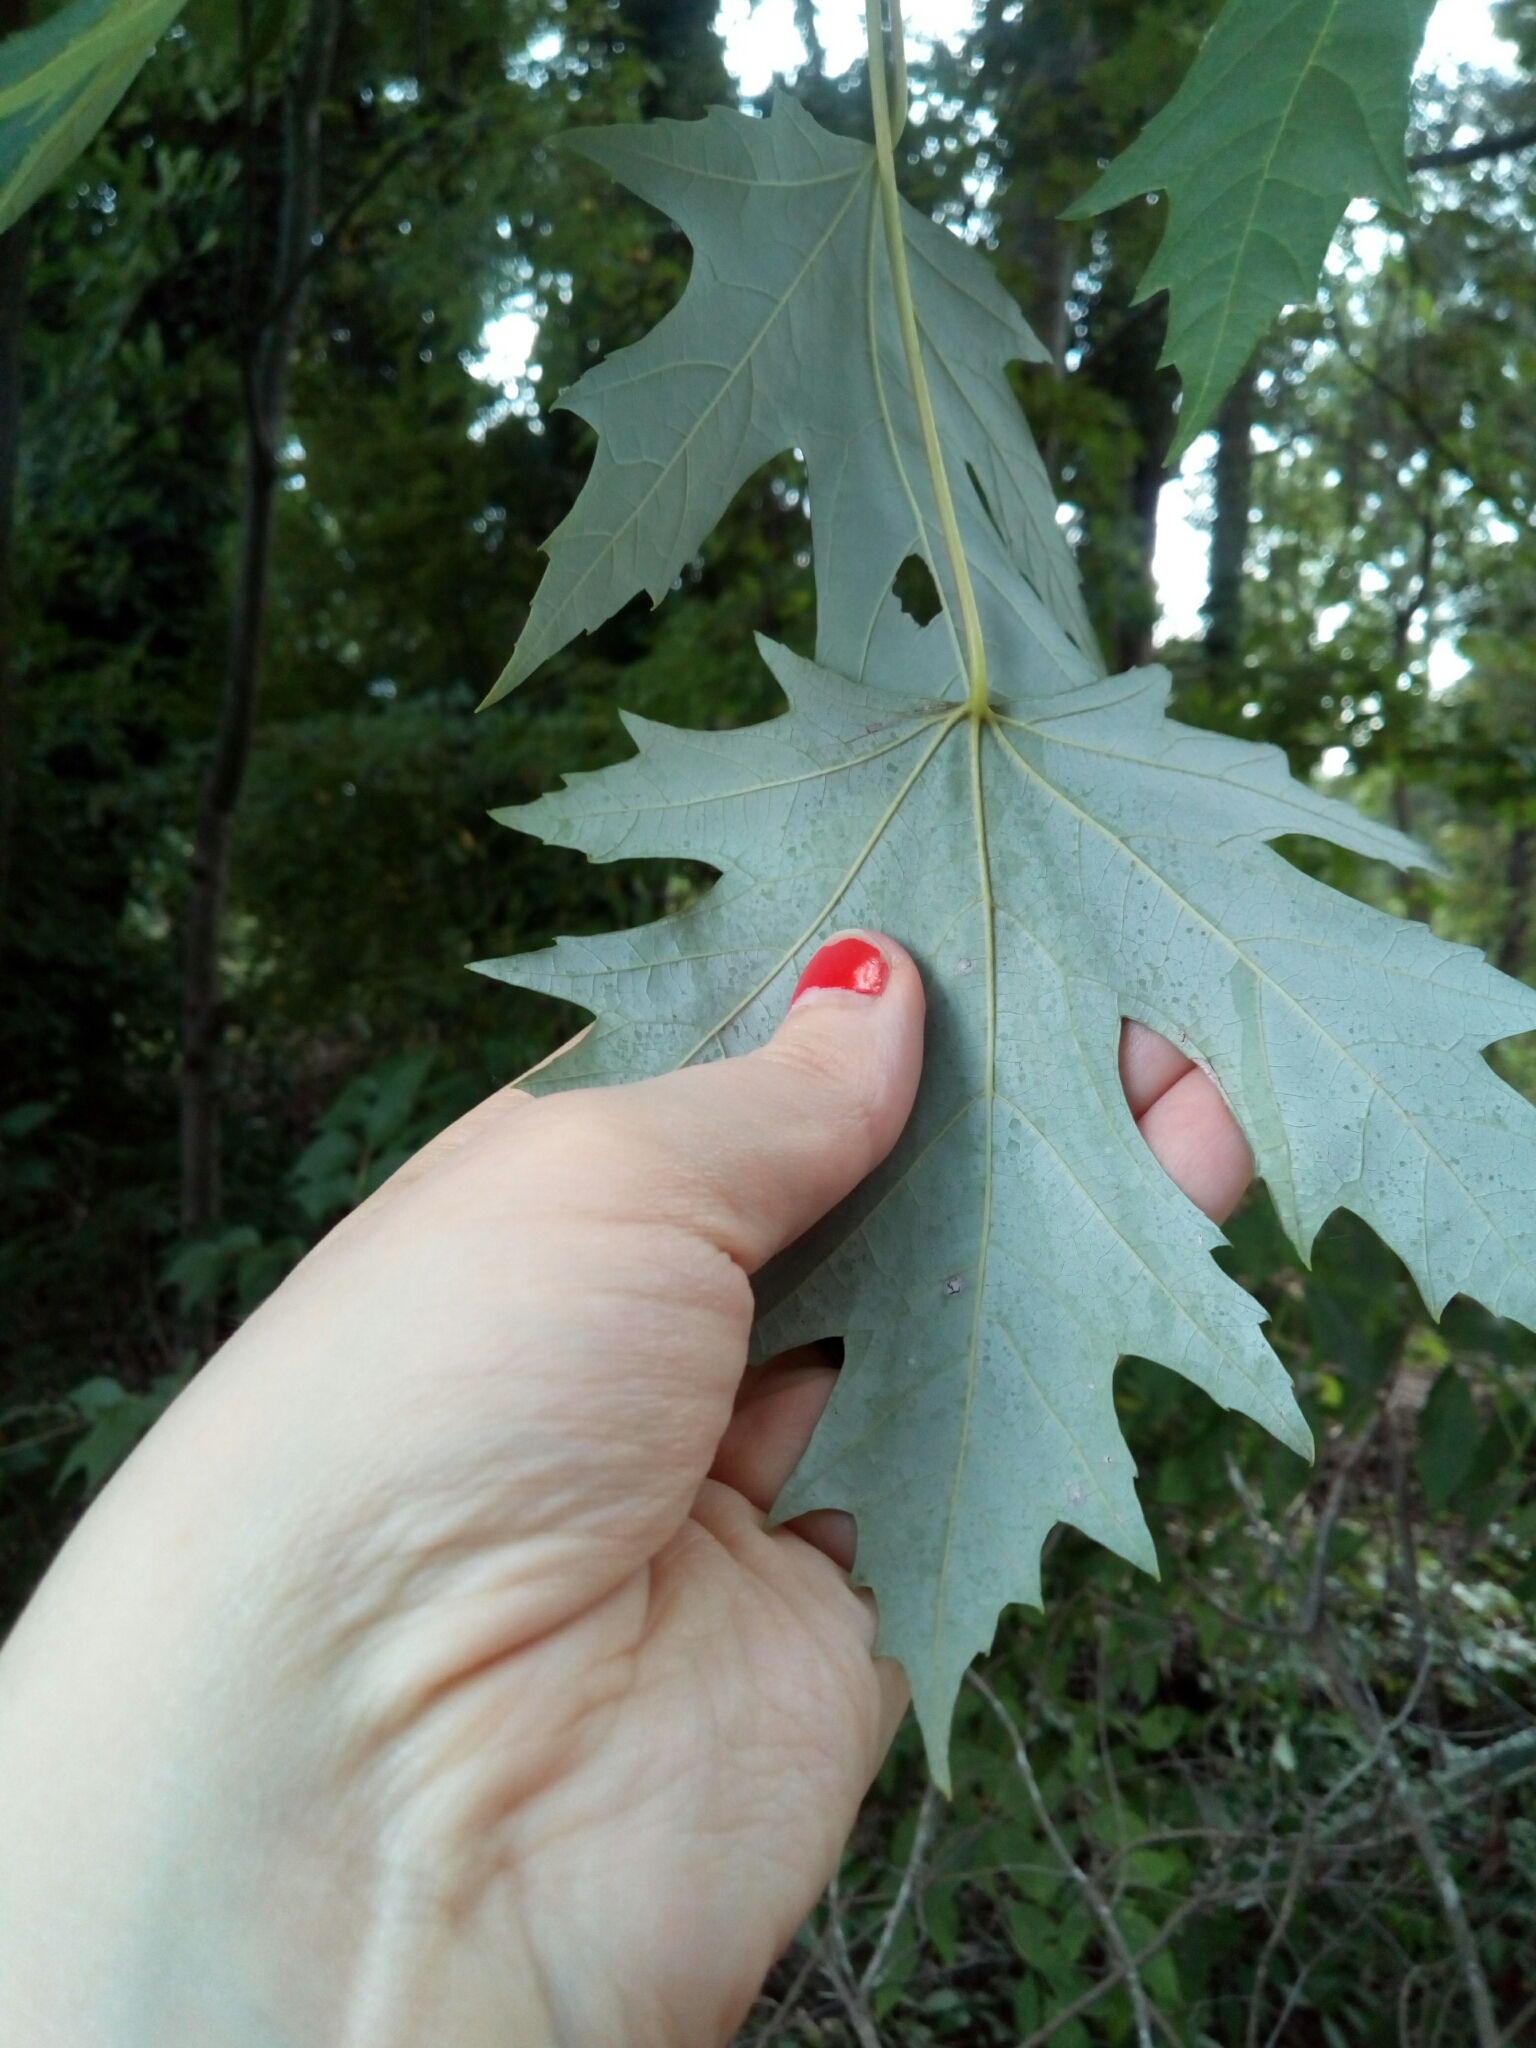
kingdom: Plantae
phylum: Tracheophyta
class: Magnoliopsida
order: Sapindales
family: Sapindaceae
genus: Acer
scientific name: Acer saccharinum
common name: Silver maple
